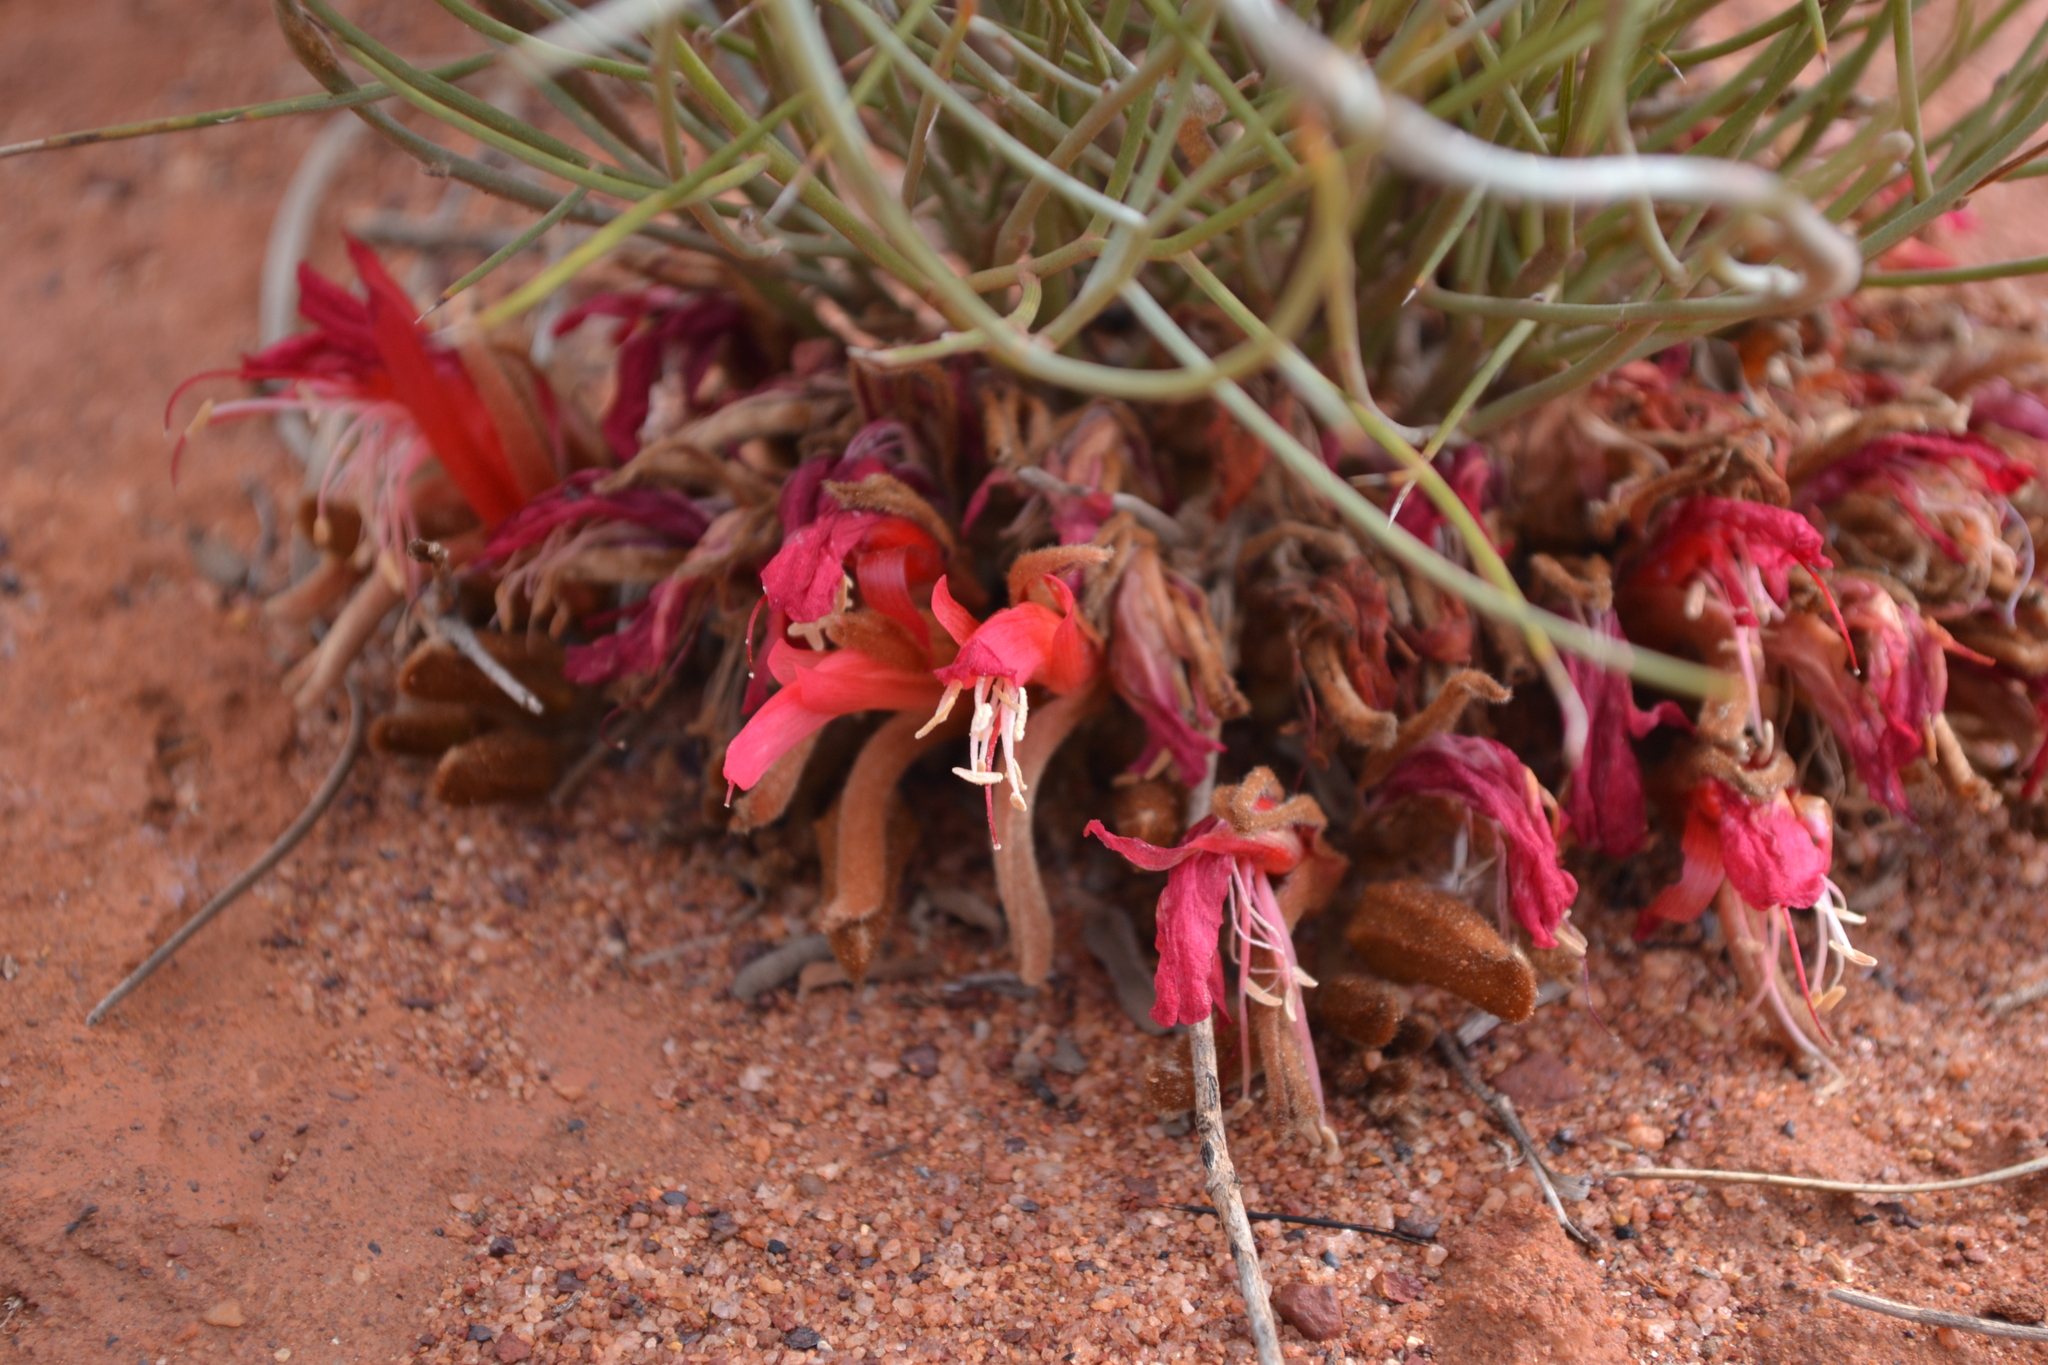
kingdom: Plantae
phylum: Tracheophyta
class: Magnoliopsida
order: Fabales
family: Fabaceae
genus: Leptosema
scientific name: Leptosema chambersii
